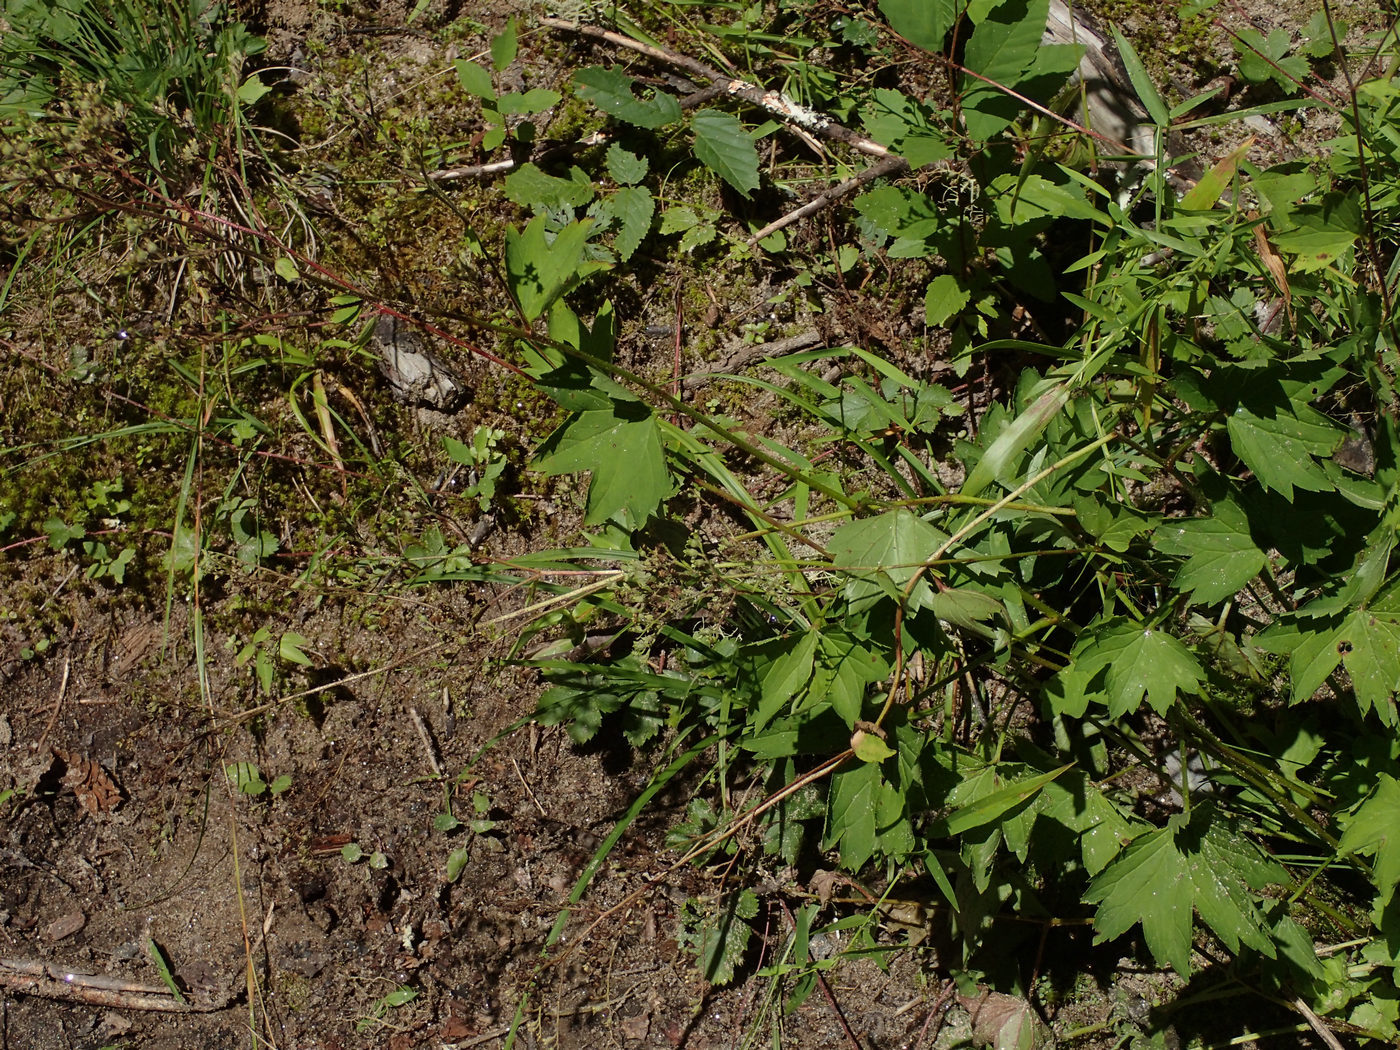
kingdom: Plantae
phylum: Tracheophyta
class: Magnoliopsida
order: Saxifragales
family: Saxifragaceae
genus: Boykinia
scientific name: Boykinia aconitifolia
